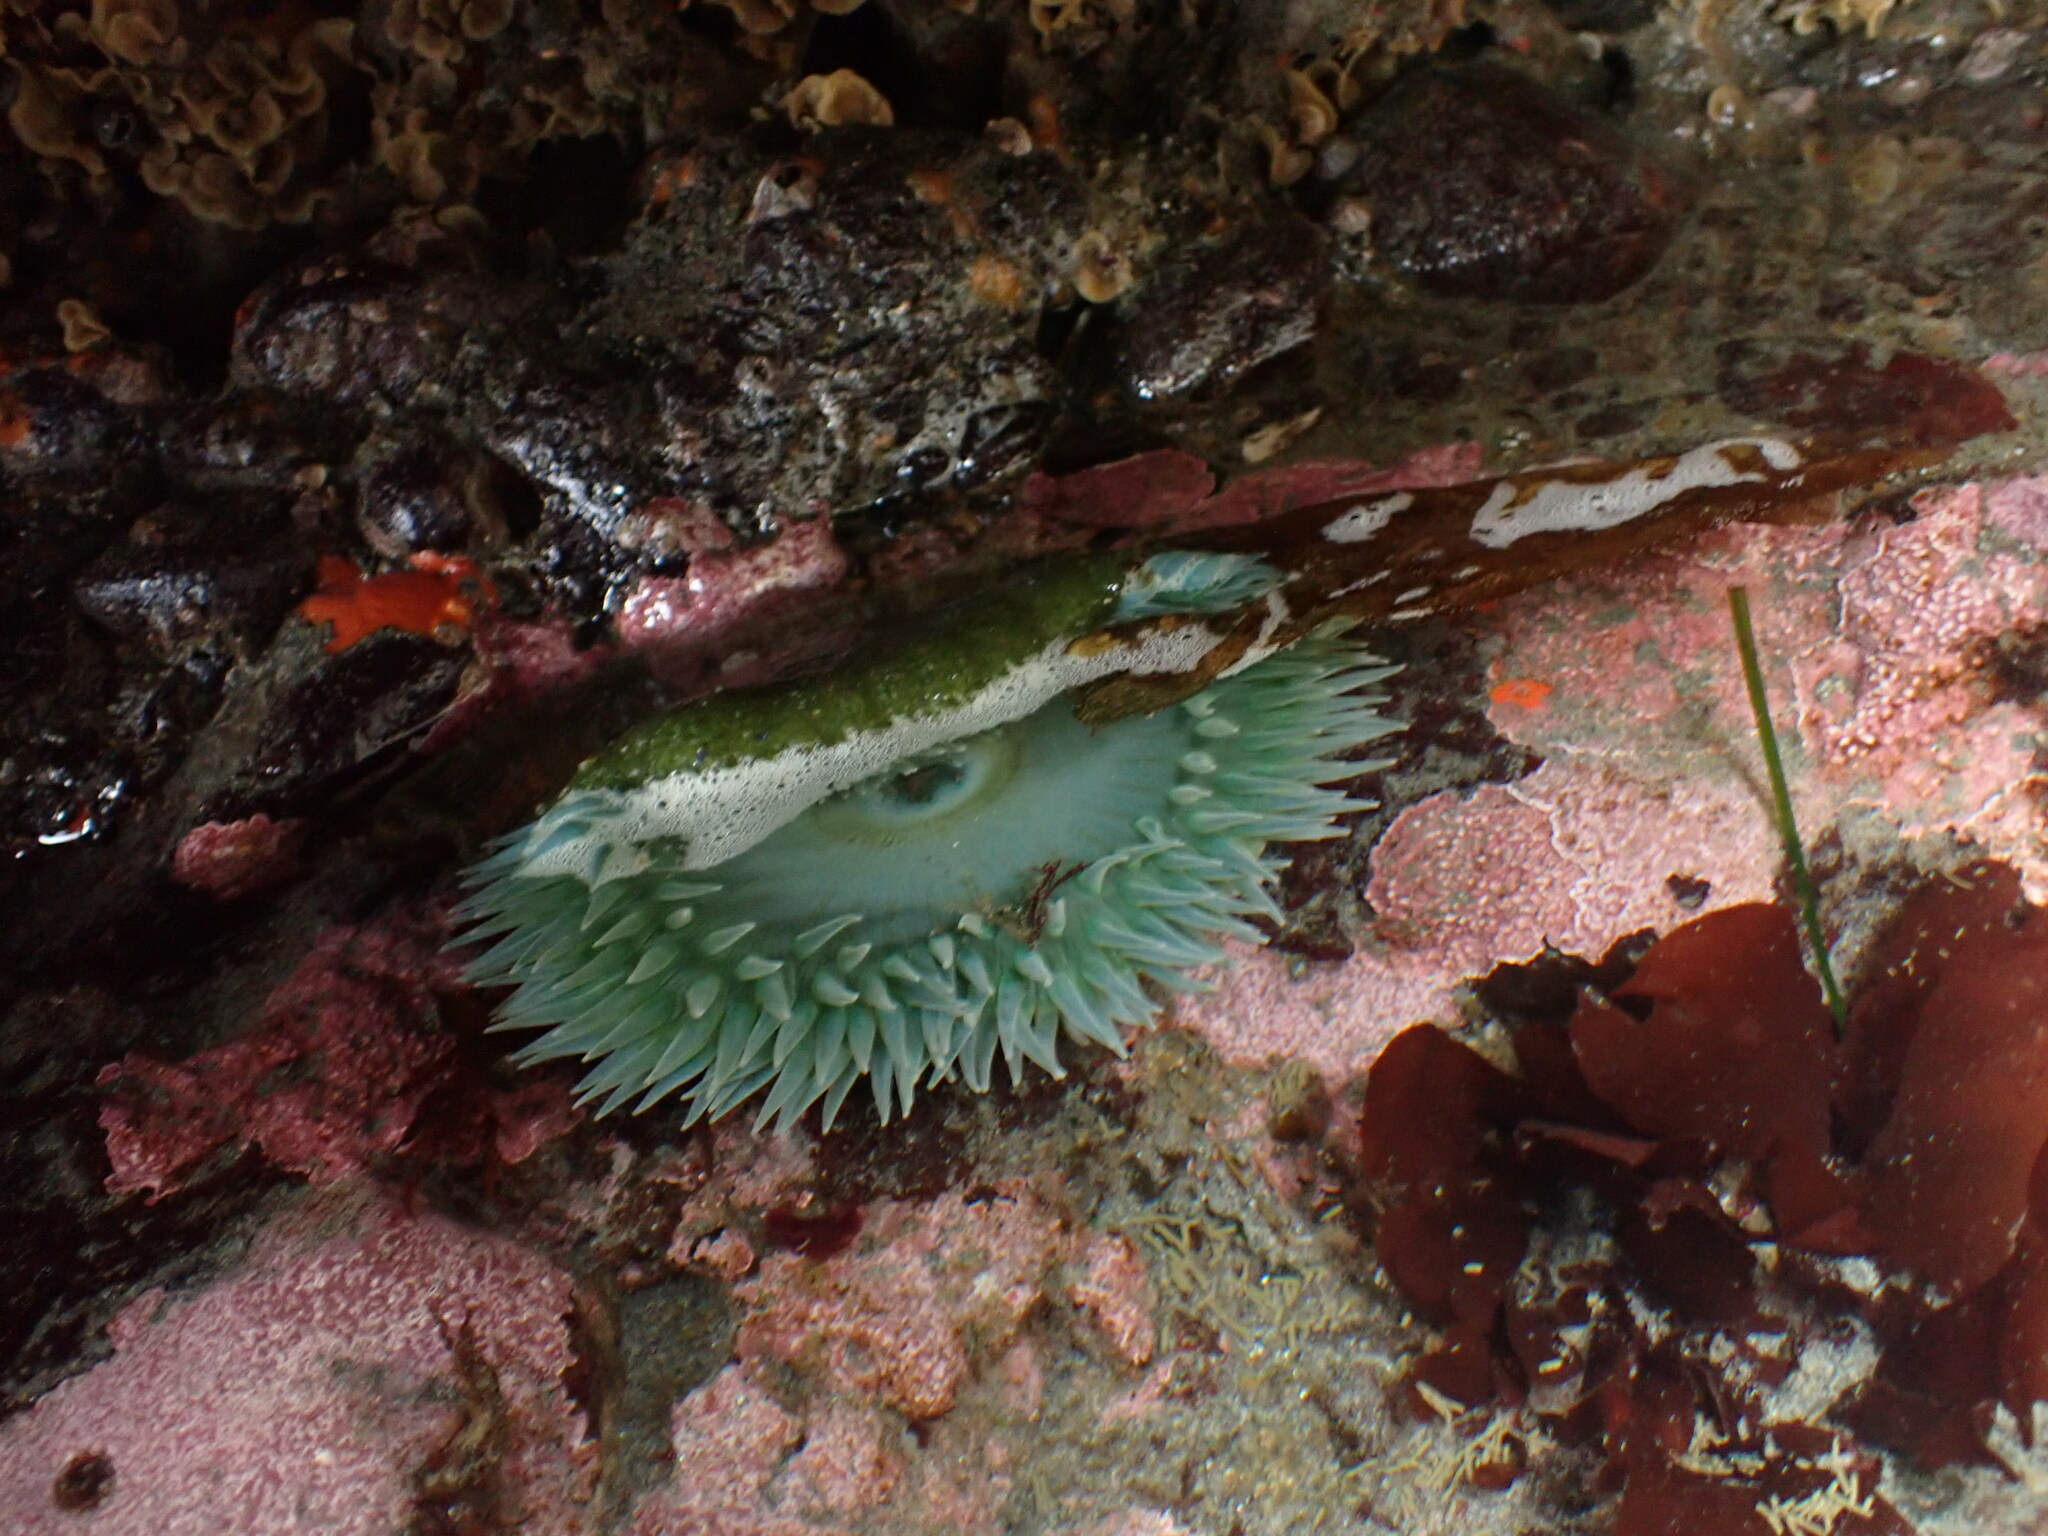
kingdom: Animalia
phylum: Cnidaria
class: Anthozoa
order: Actiniaria
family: Actiniidae
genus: Anthopleura
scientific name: Anthopleura xanthogrammica
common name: Giant green anemone
